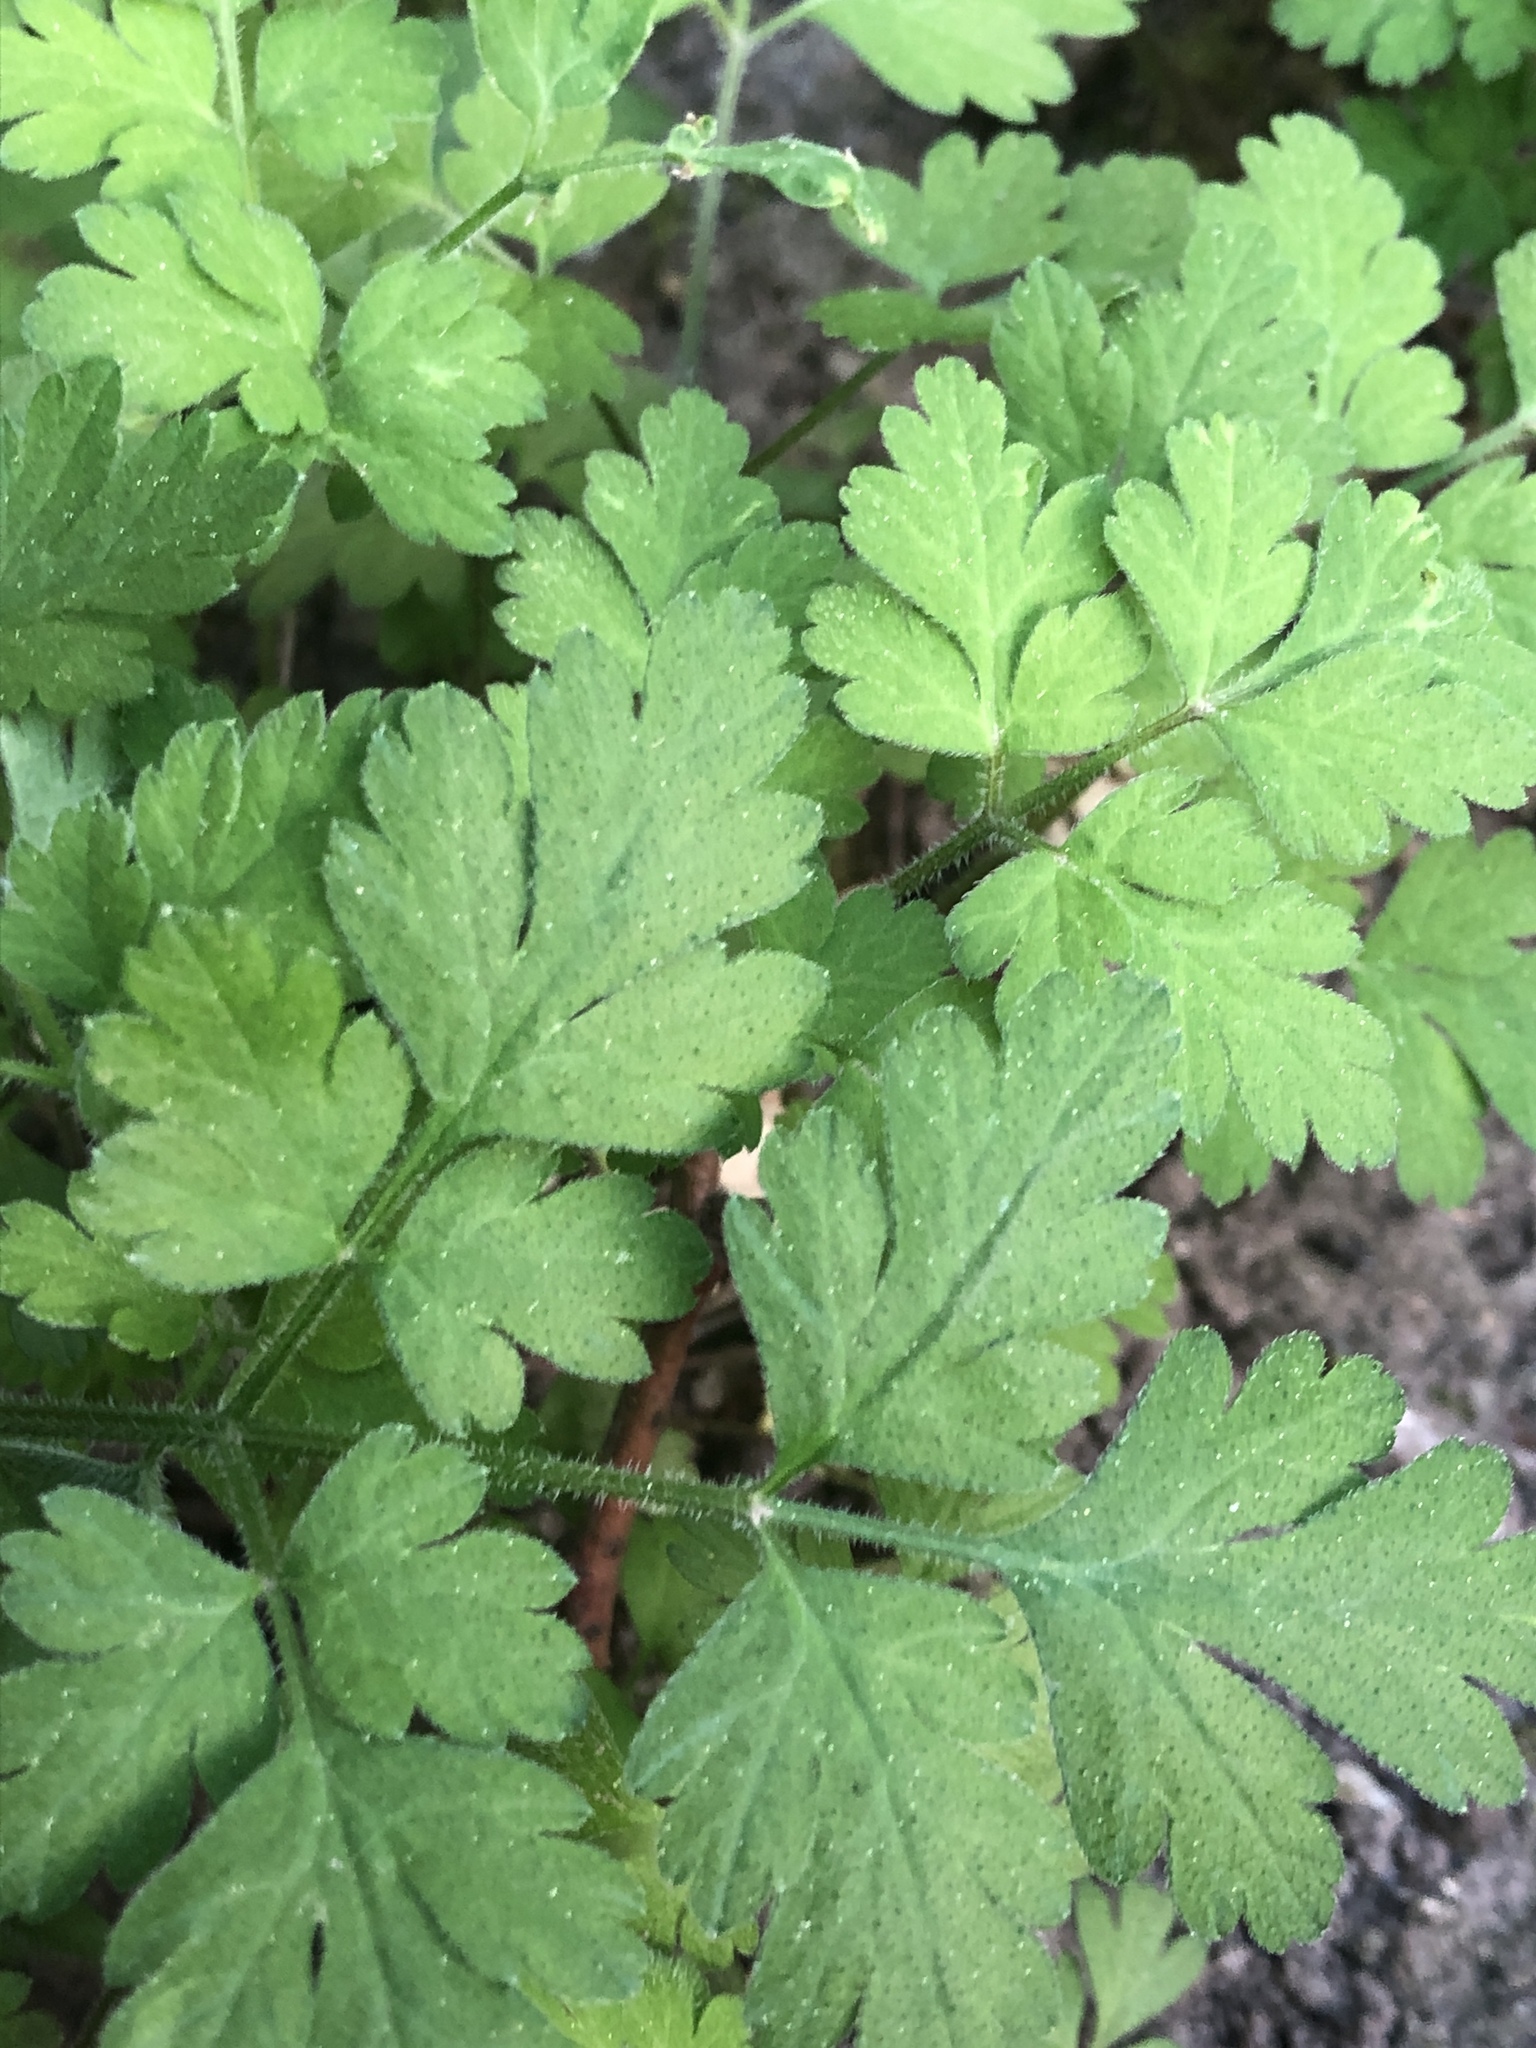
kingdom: Plantae
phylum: Tracheophyta
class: Magnoliopsida
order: Apiales
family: Apiaceae
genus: Chaerophyllum
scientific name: Chaerophyllum temulum
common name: Rough chervil
